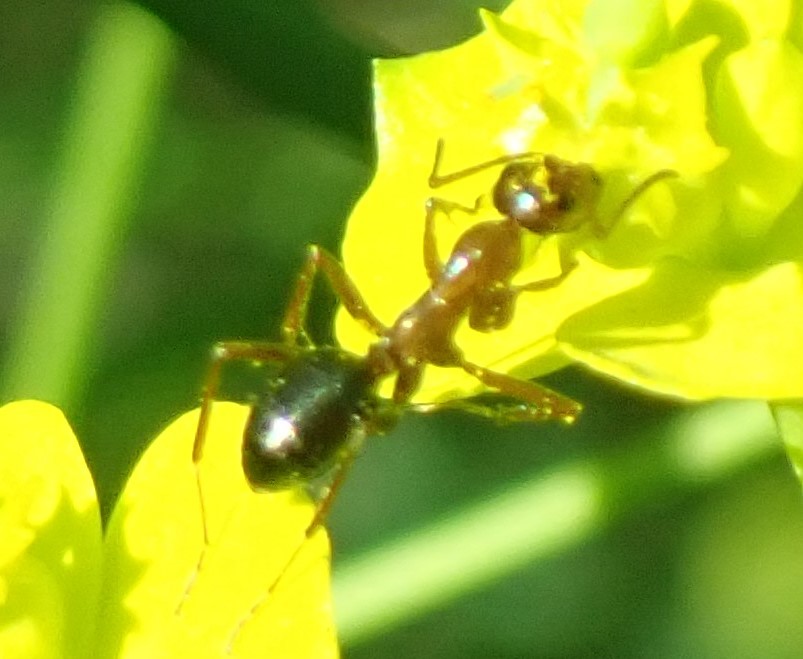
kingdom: Animalia
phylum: Arthropoda
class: Insecta
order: Hymenoptera
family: Formicidae
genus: Formica
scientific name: Formica pallidefulva
